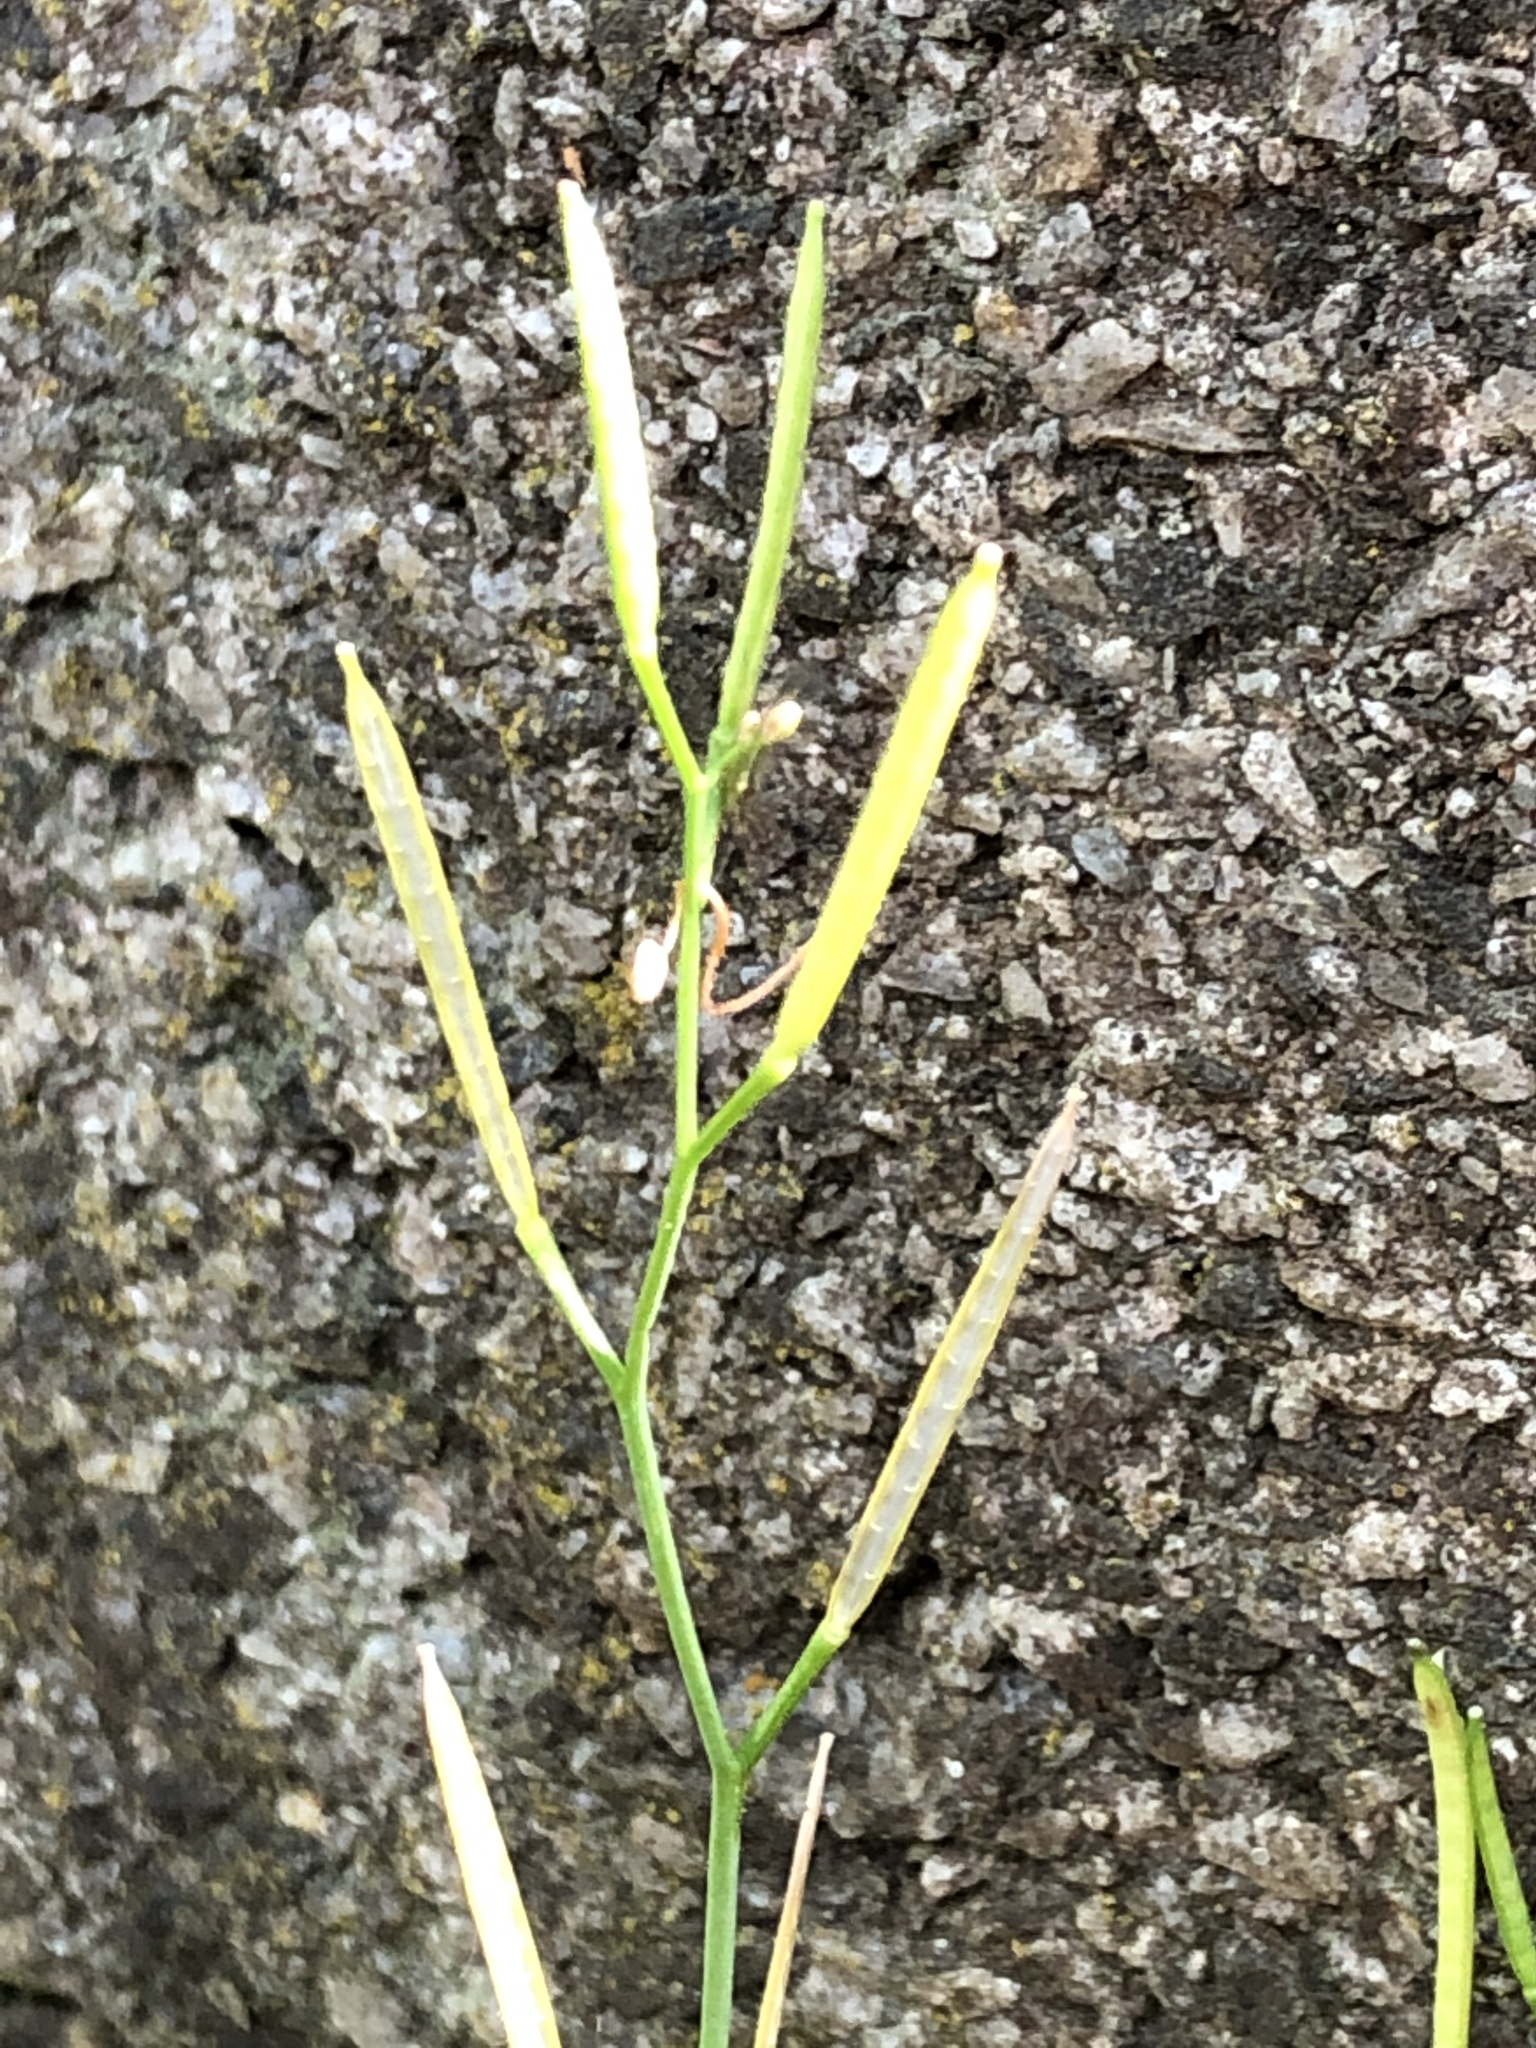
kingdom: Plantae
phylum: Tracheophyta
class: Magnoliopsida
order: Brassicales
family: Brassicaceae
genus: Cardamine
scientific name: Cardamine hirsuta
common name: Hairy bittercress
